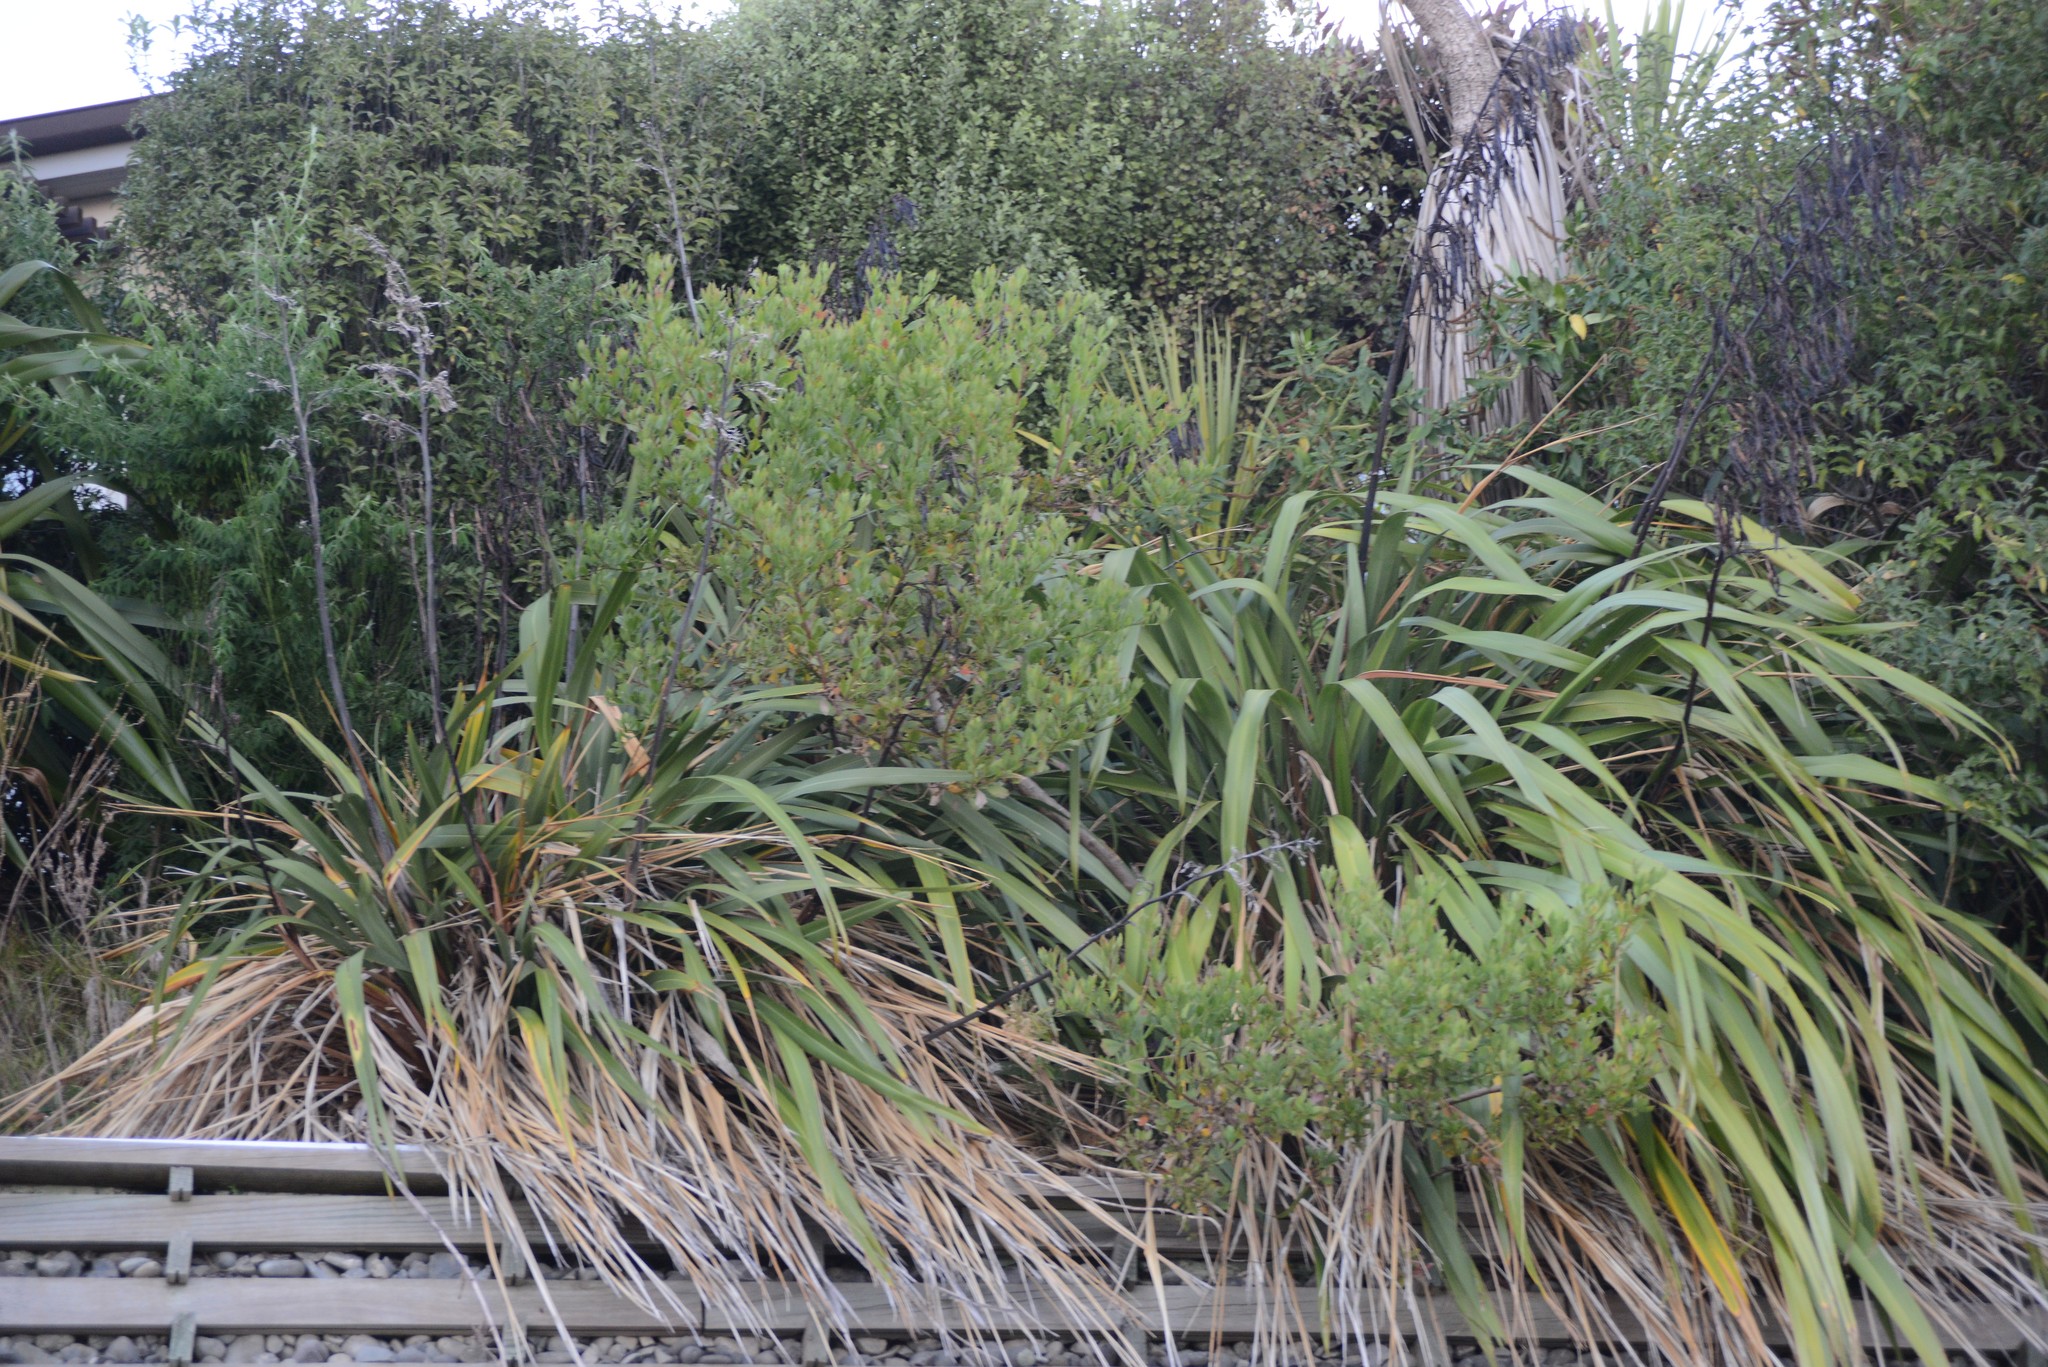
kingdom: Plantae
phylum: Tracheophyta
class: Magnoliopsida
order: Asterales
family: Asteraceae
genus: Osteospermum
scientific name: Osteospermum moniliferum
